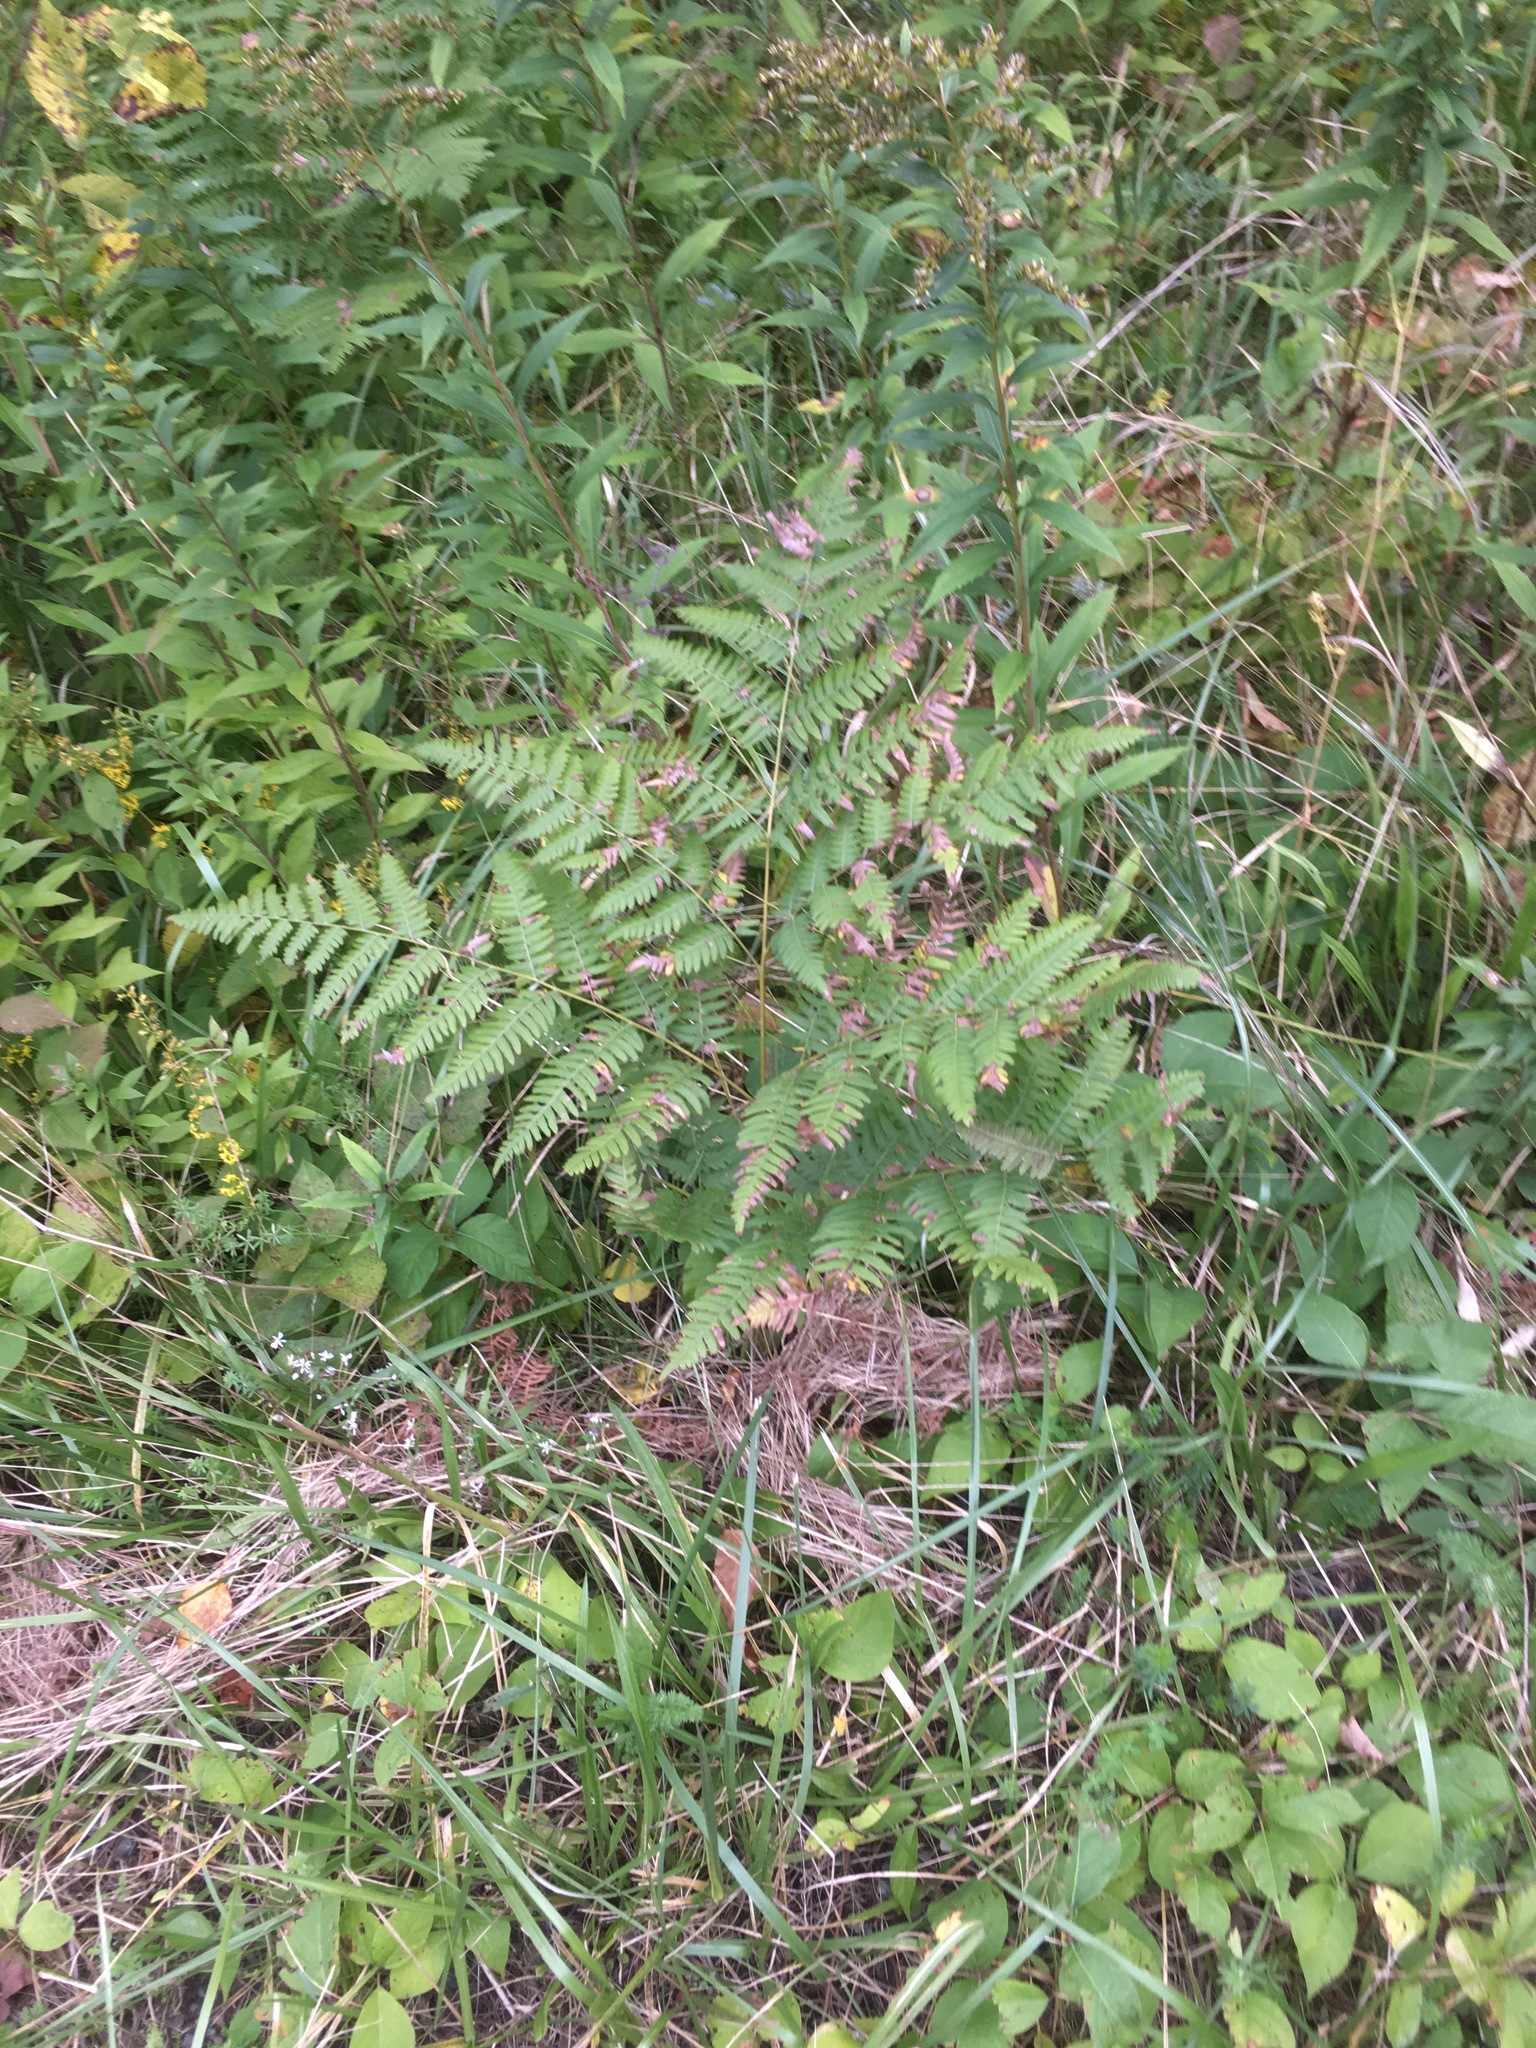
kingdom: Plantae
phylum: Tracheophyta
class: Polypodiopsida
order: Polypodiales
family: Dennstaedtiaceae
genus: Pteridium
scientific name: Pteridium aquilinum
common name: Bracken
